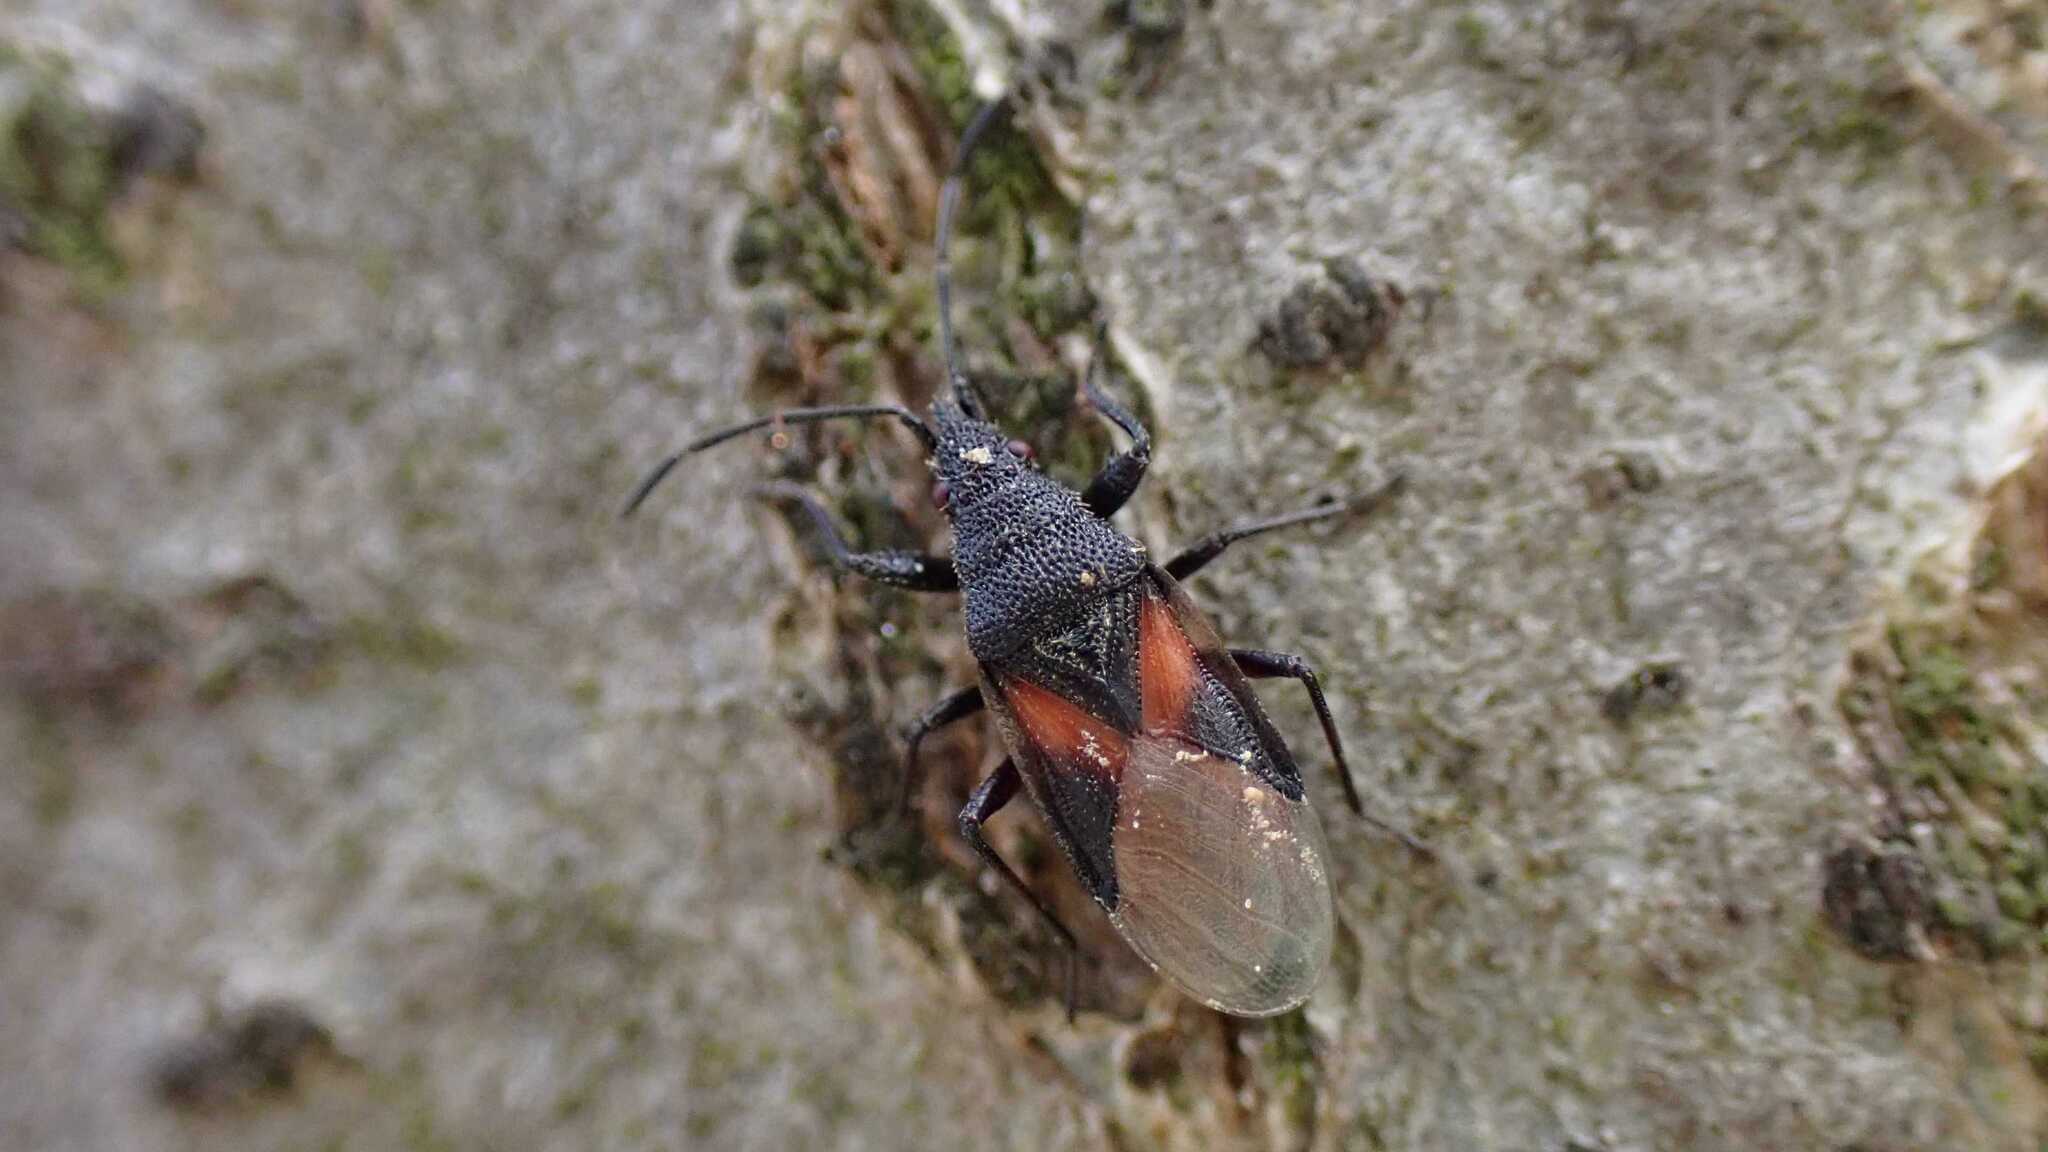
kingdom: Animalia
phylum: Arthropoda
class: Insecta
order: Hemiptera
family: Oxycarenidae
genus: Oxycarenus
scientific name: Oxycarenus lavaterae
